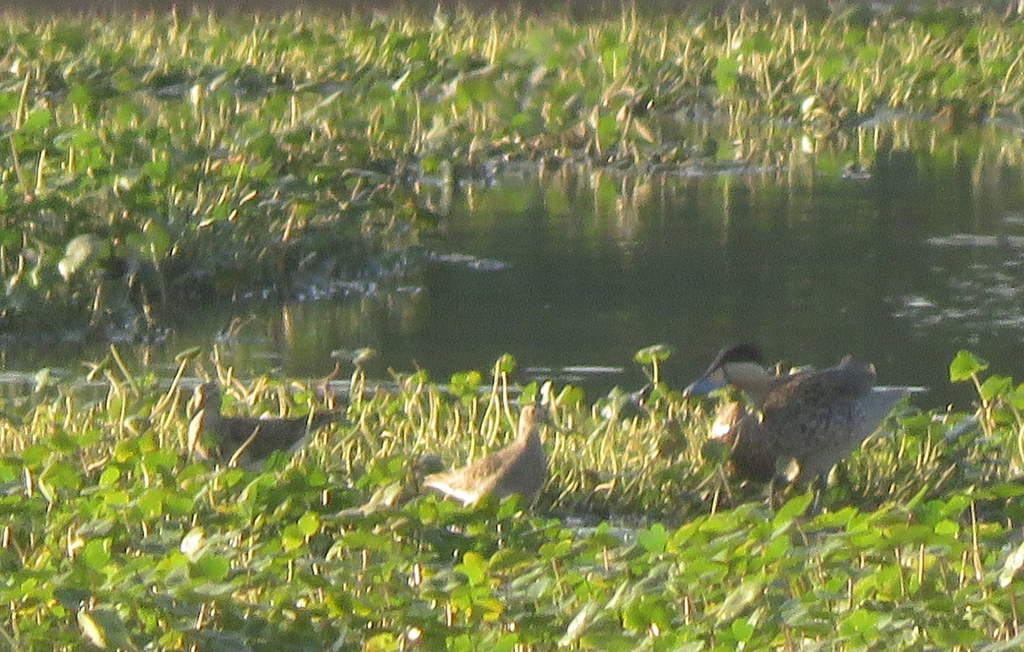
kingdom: Animalia
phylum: Chordata
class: Aves
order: Charadriiformes
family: Scolopacidae
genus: Calidris
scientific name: Calidris melanotos
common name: Pectoral sandpiper
